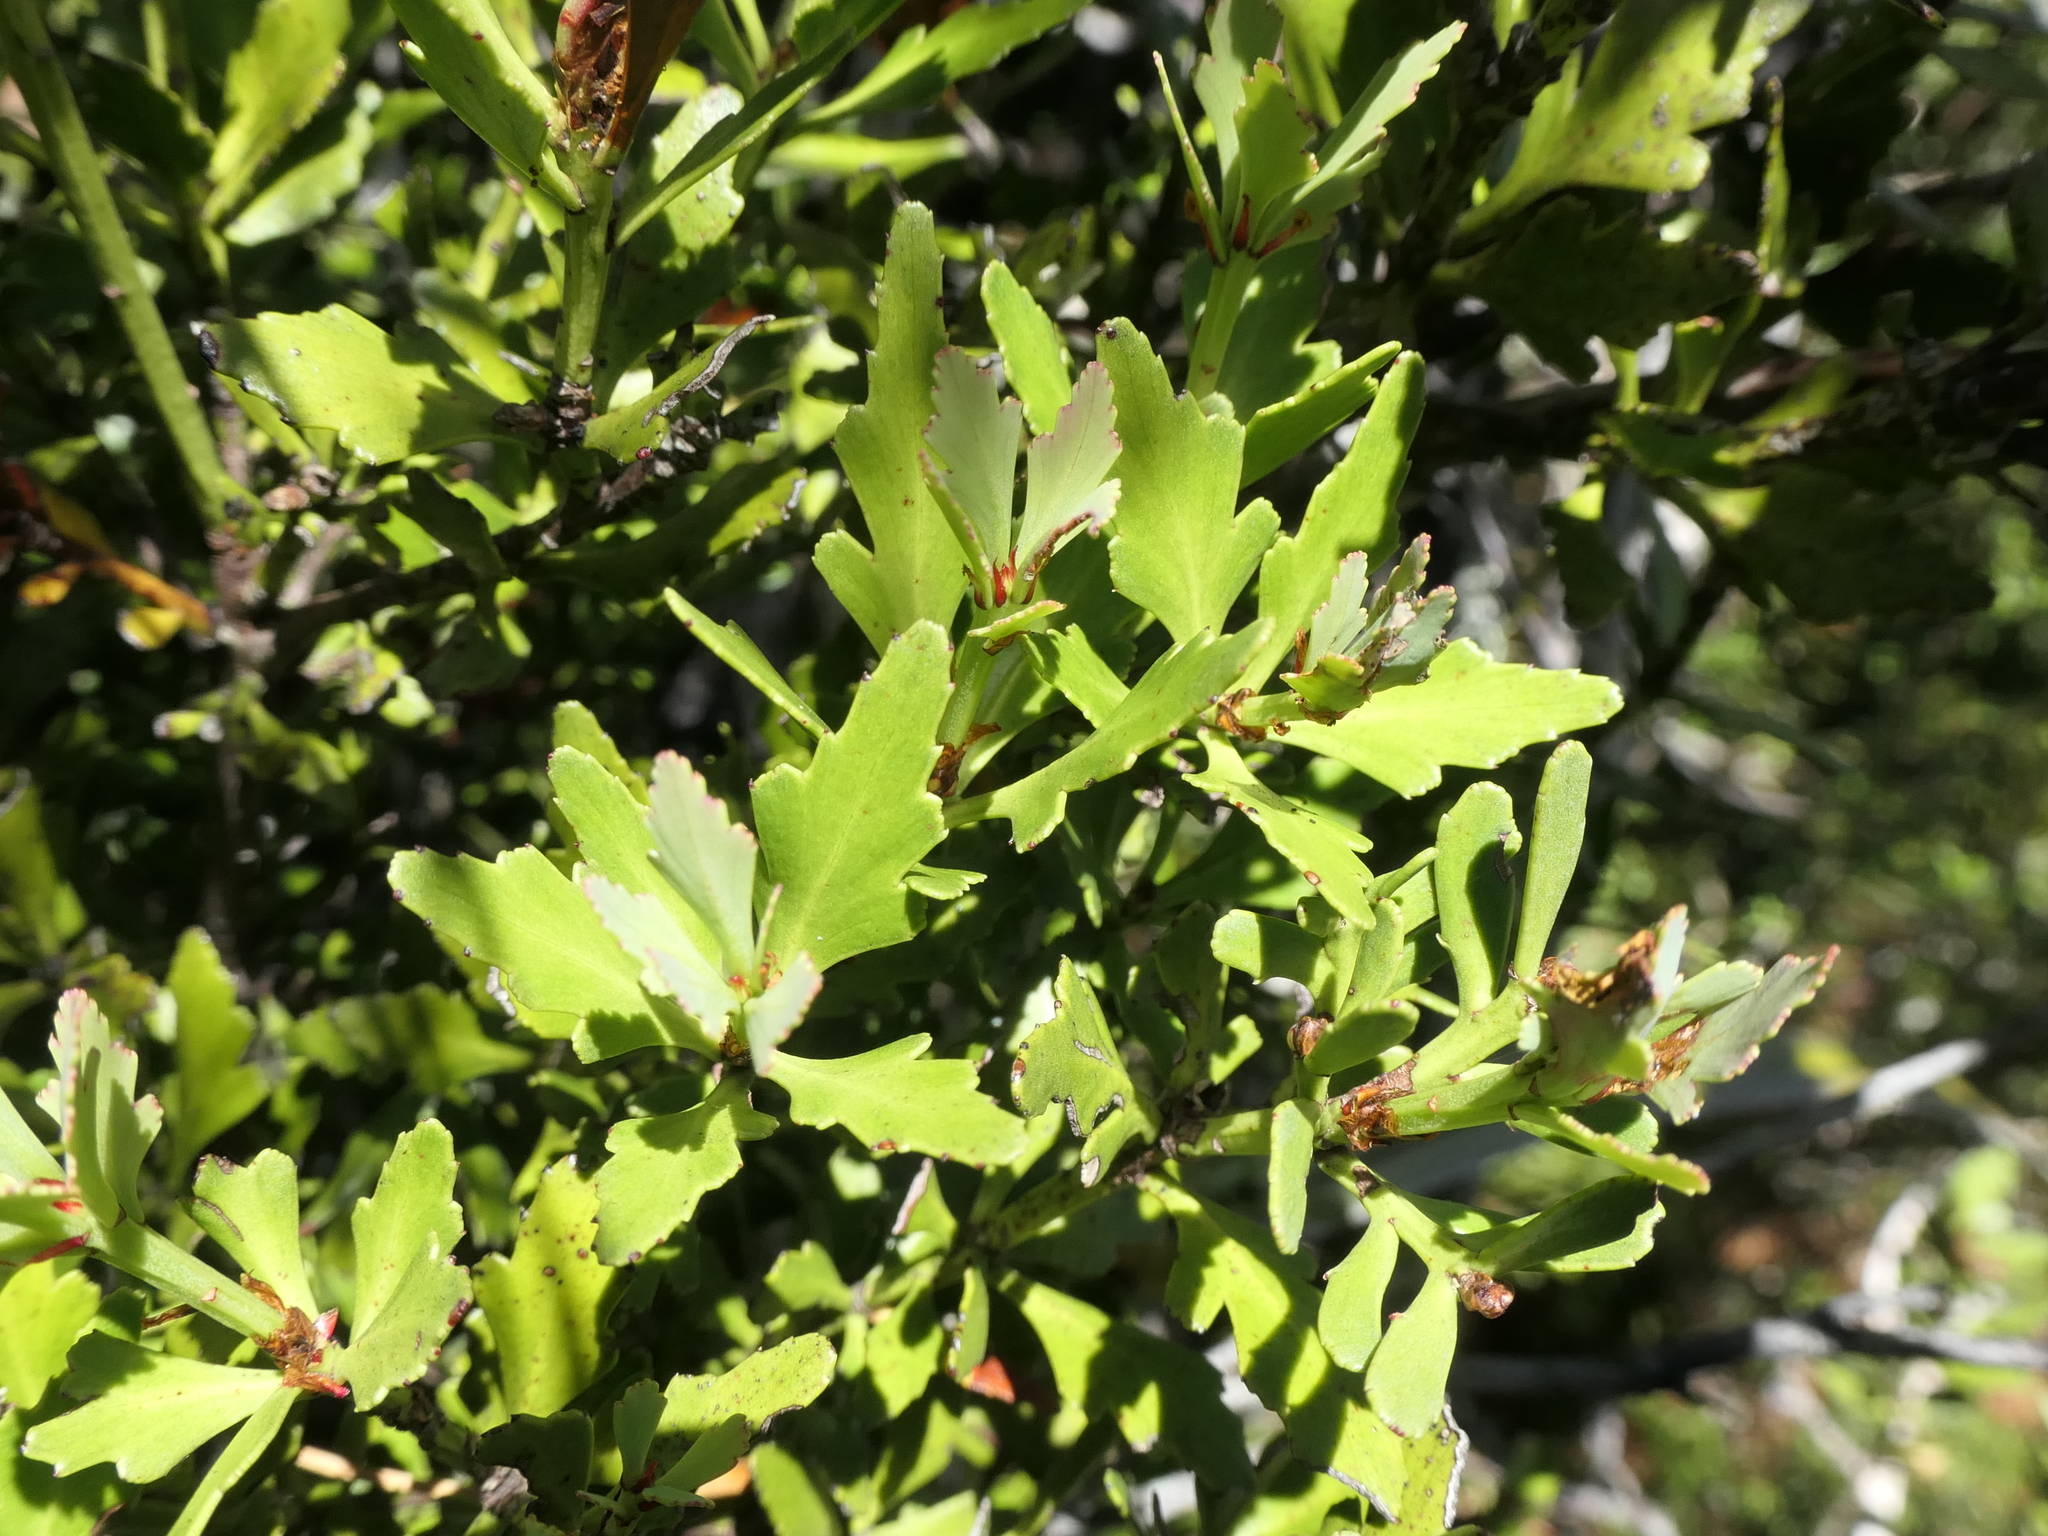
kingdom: Plantae
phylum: Tracheophyta
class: Pinopsida
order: Pinales
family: Phyllocladaceae
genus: Phyllocladus
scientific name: Phyllocladus trichomanoides
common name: Celery pine
